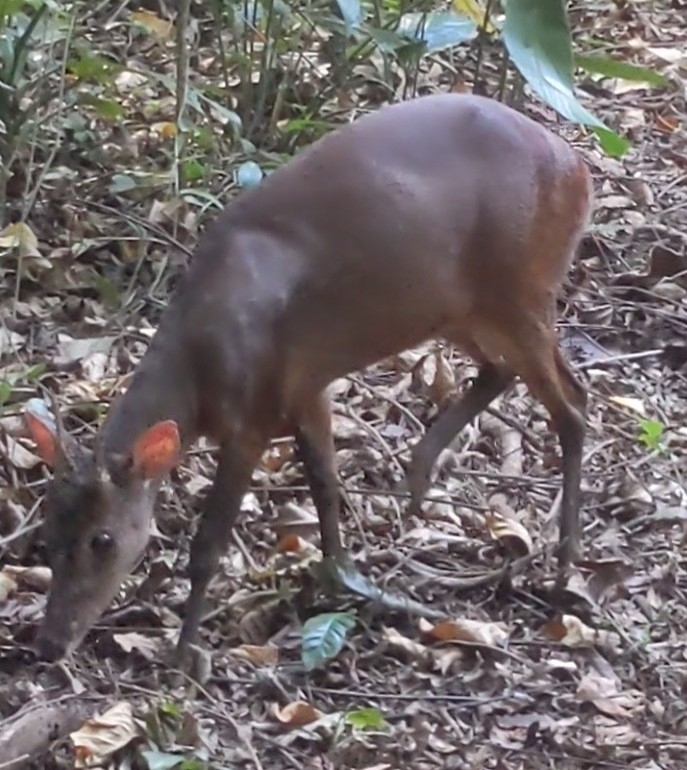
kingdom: Animalia
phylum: Chordata
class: Mammalia
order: Artiodactyla
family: Cervidae
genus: Mazama
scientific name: Mazama temama
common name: Central american red brocket
